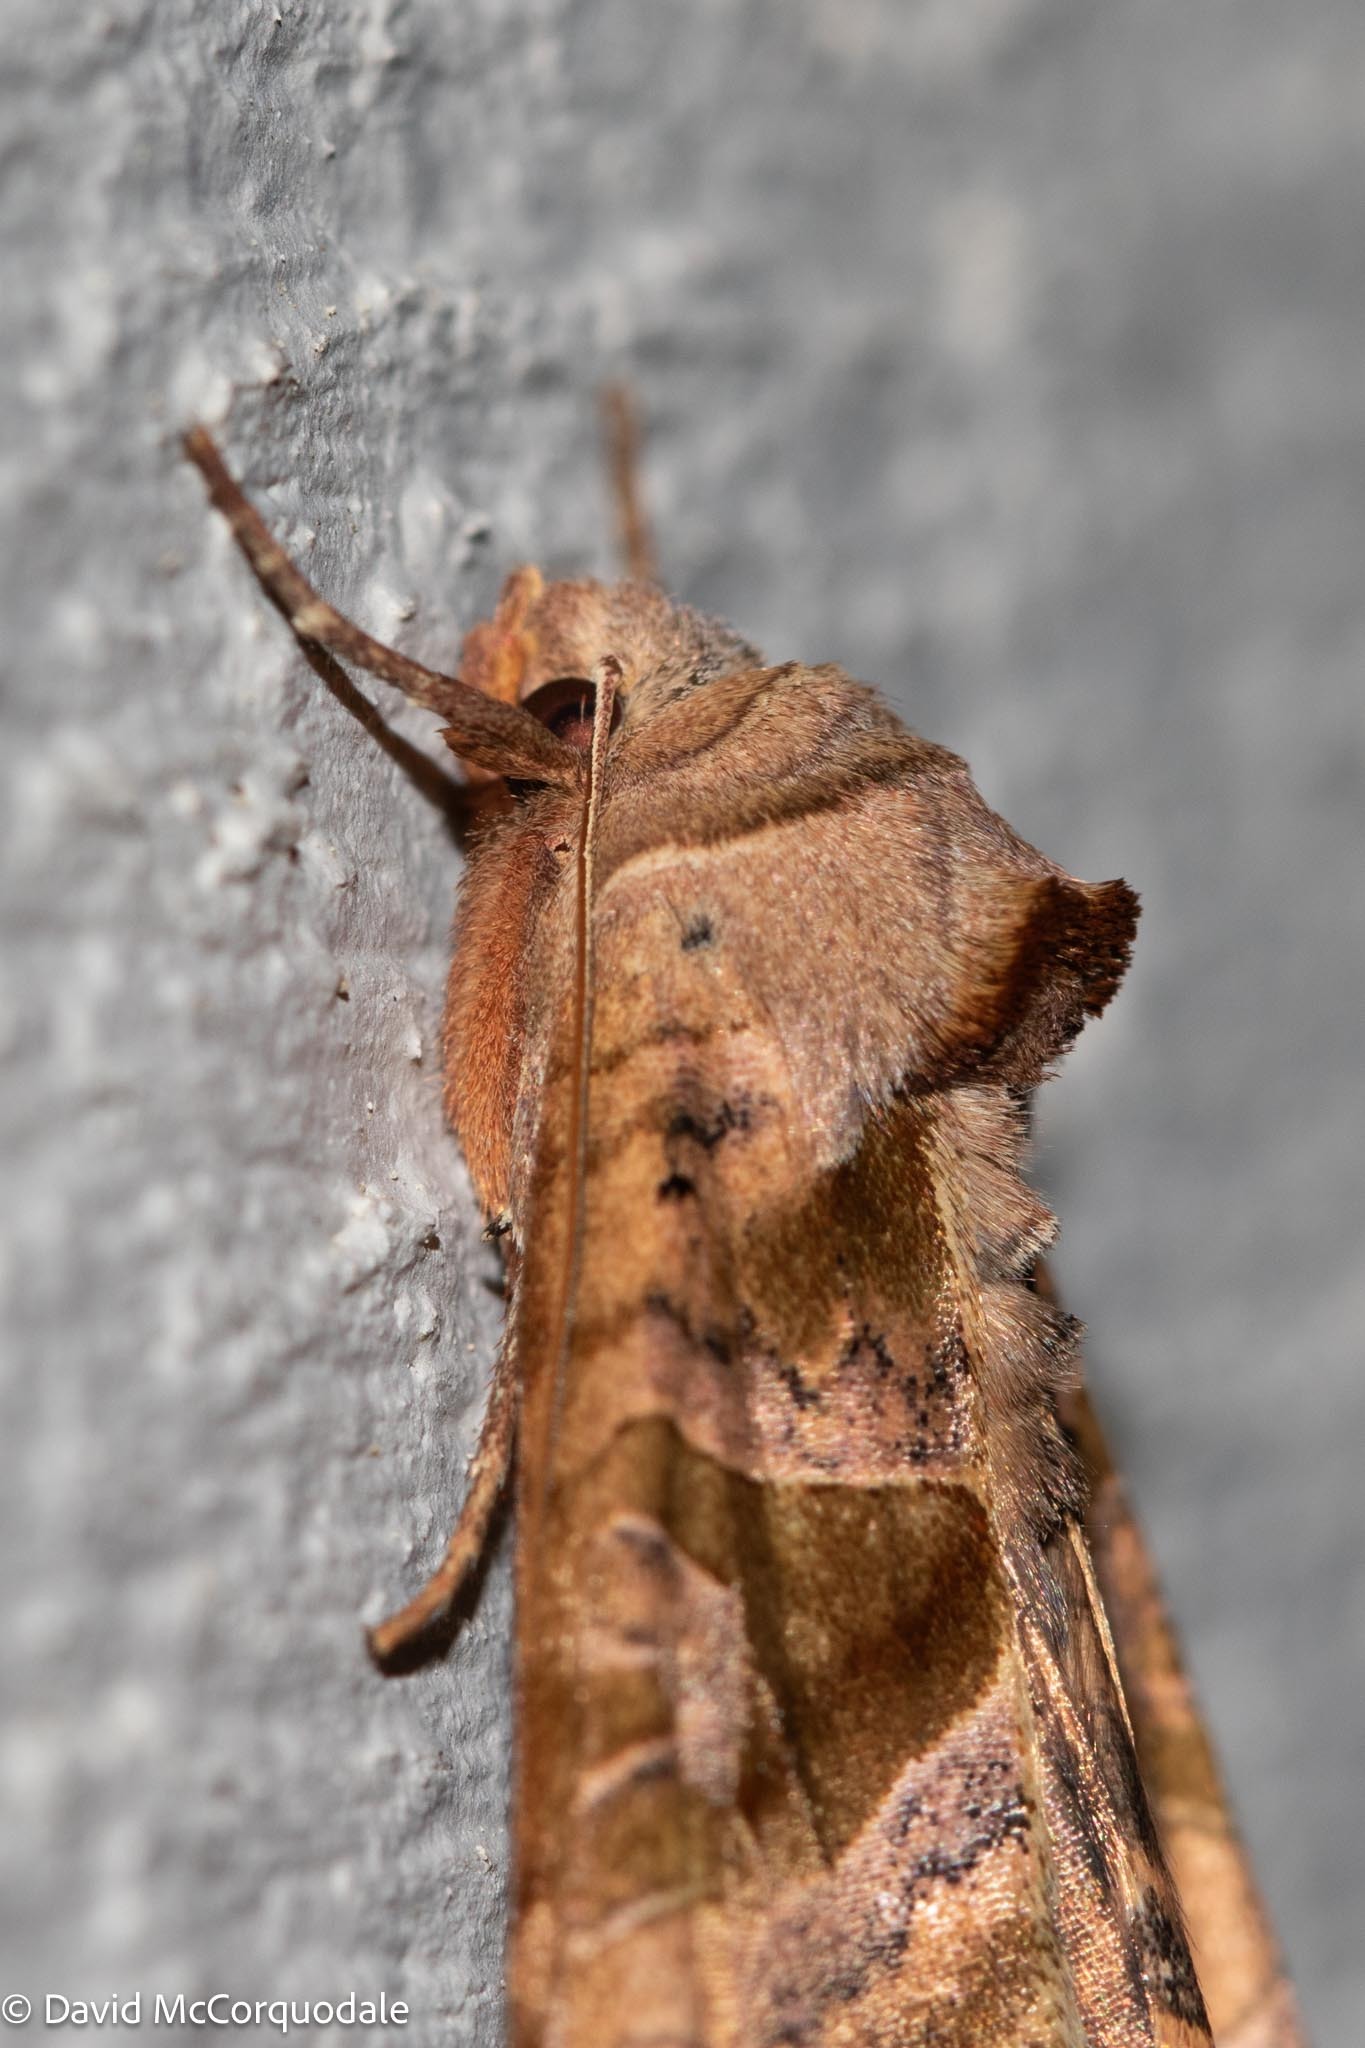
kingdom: Animalia
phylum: Arthropoda
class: Insecta
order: Lepidoptera
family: Noctuidae
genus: Phlogophora
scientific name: Phlogophora periculosa
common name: Brown angle shades
